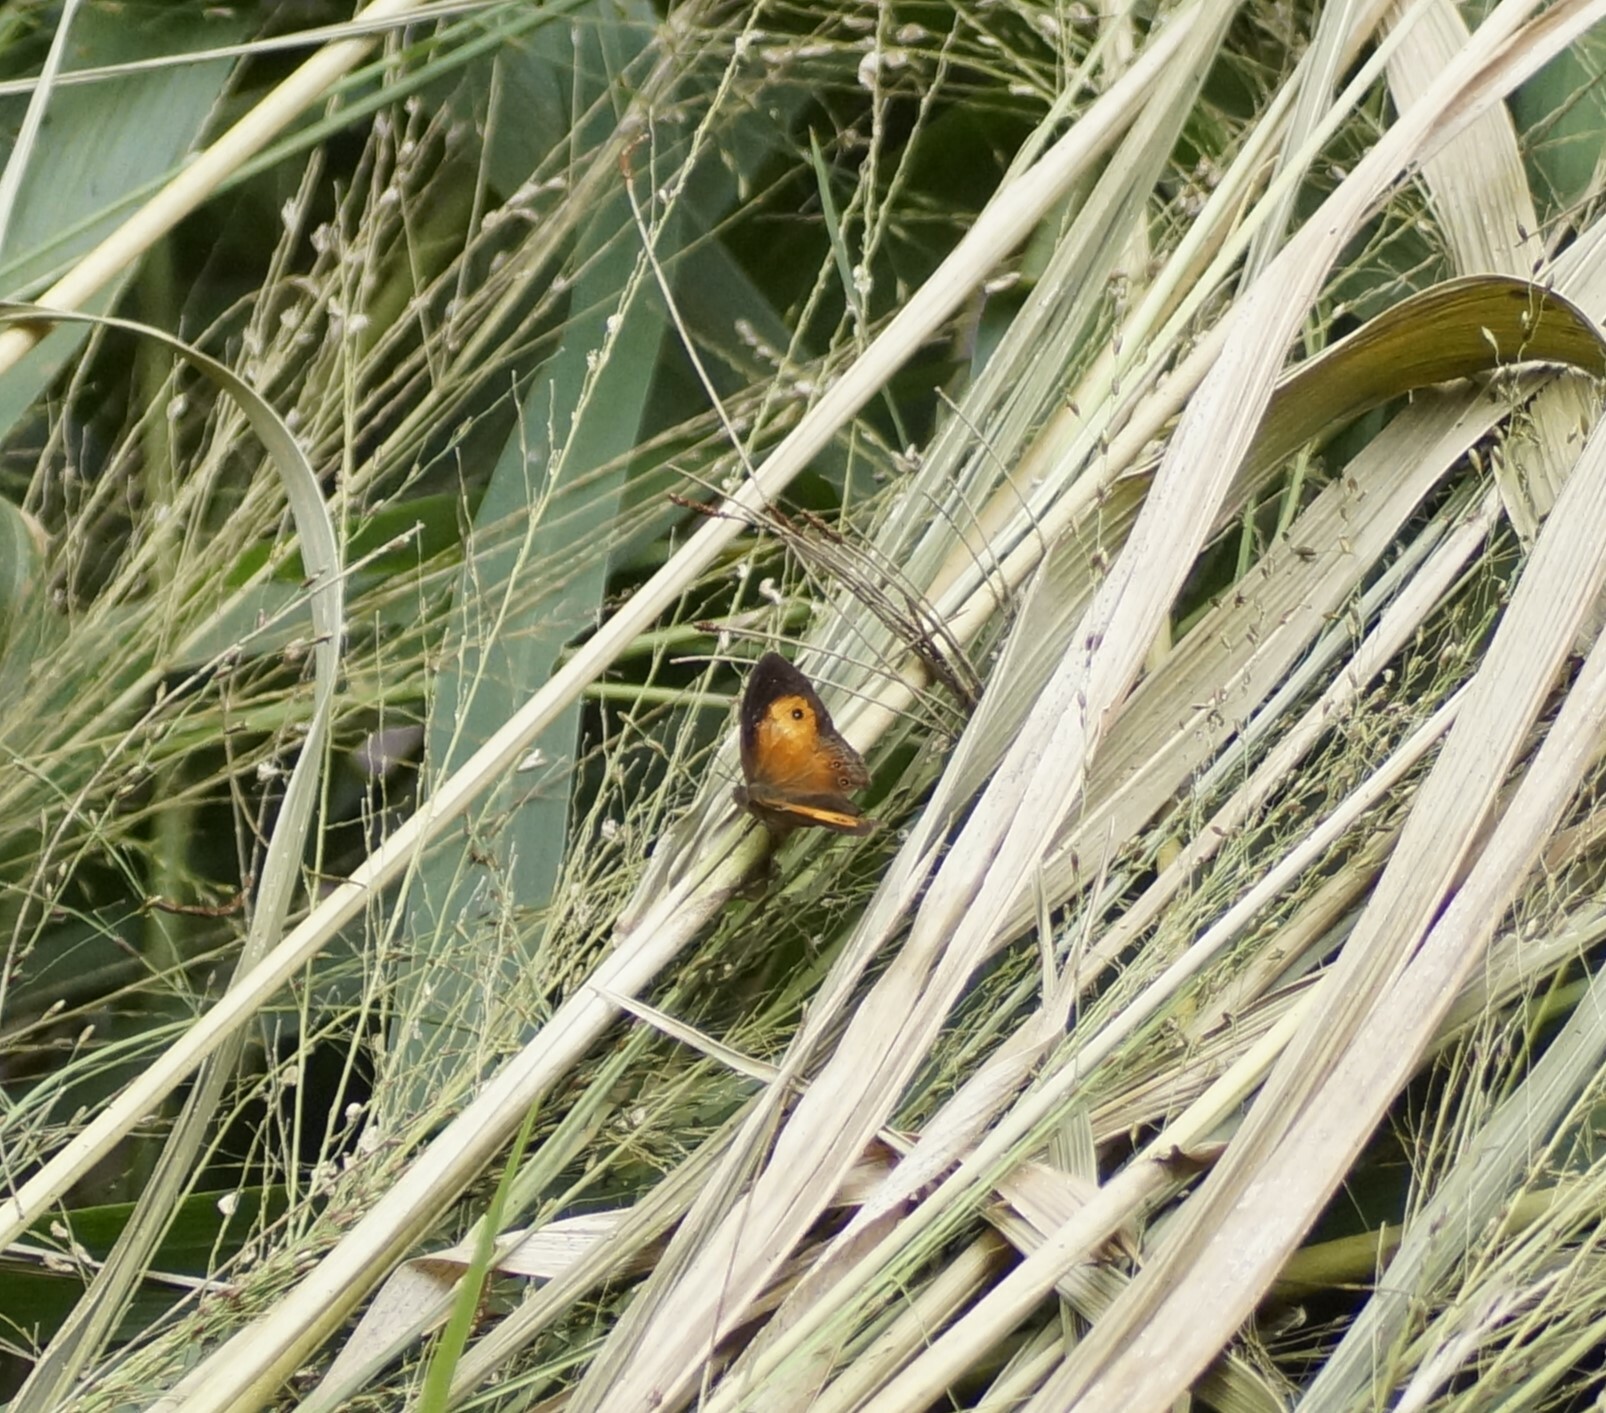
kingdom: Animalia
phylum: Arthropoda
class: Insecta
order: Lepidoptera
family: Nymphalidae
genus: Mycalesis
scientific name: Mycalesis terminus
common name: Orange bushbrown
